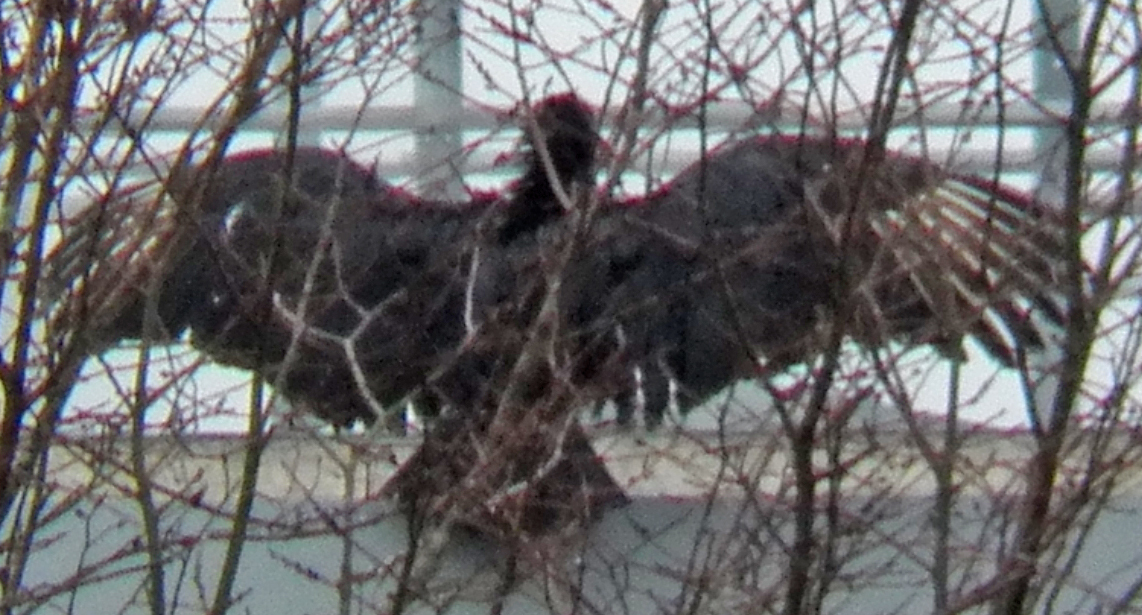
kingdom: Animalia
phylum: Chordata
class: Aves
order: Accipitriformes
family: Cathartidae
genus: Coragyps
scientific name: Coragyps atratus
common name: Black vulture
